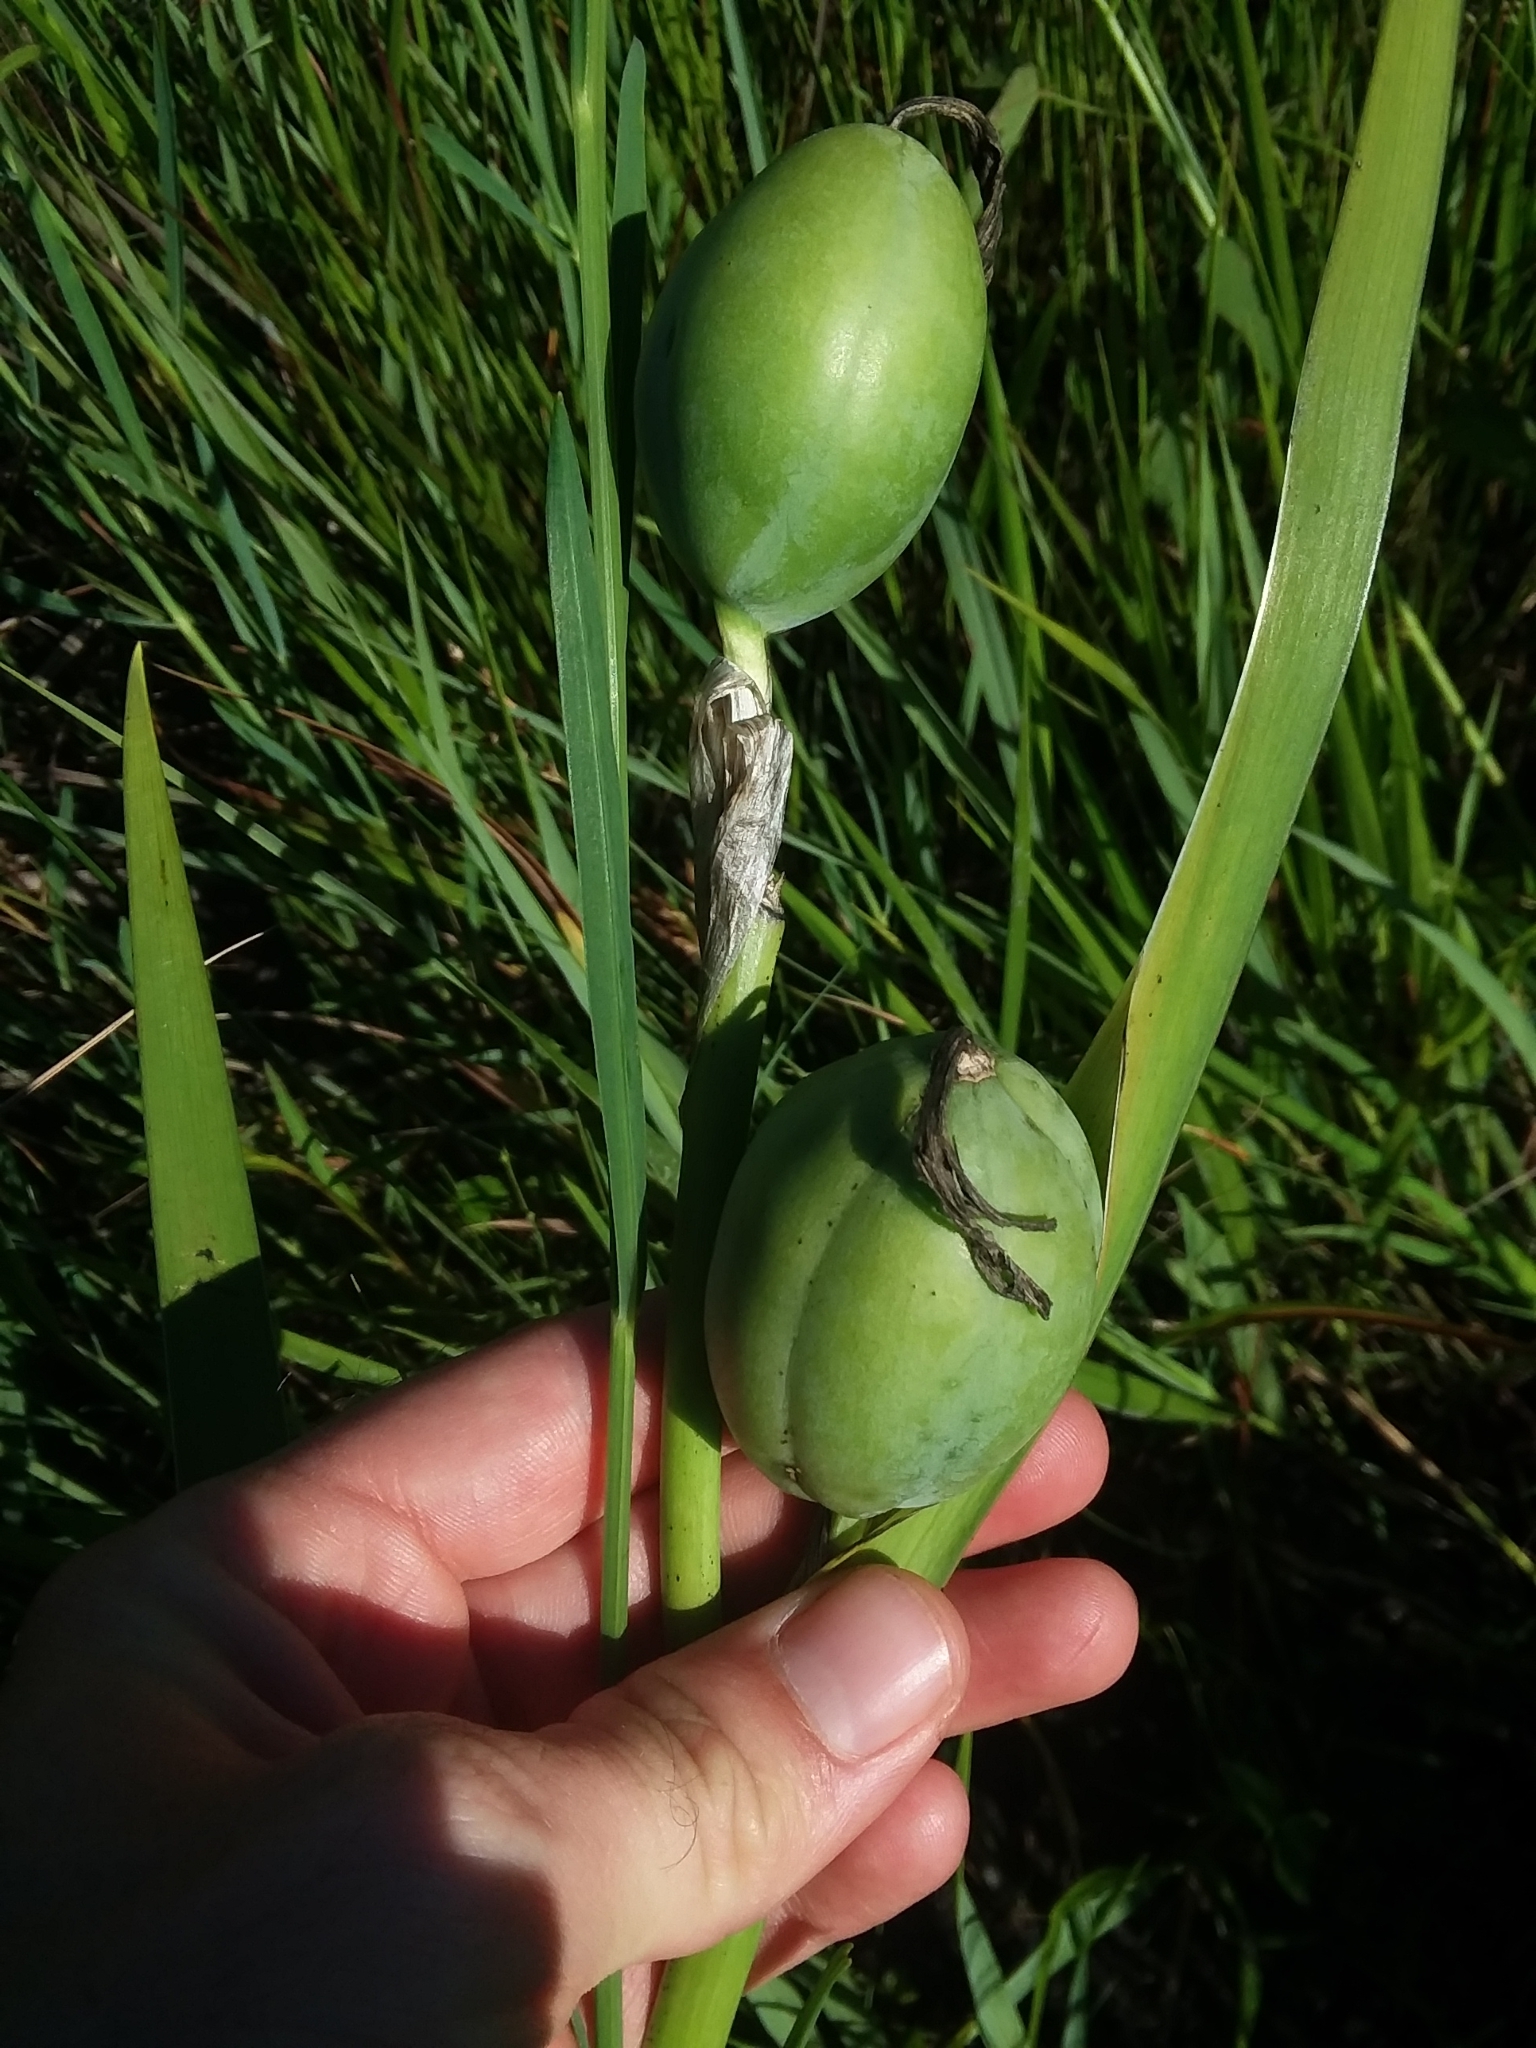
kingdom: Plantae
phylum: Tracheophyta
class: Liliopsida
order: Asparagales
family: Iridaceae
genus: Iris
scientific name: Iris virginica
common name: Southern blue flag
